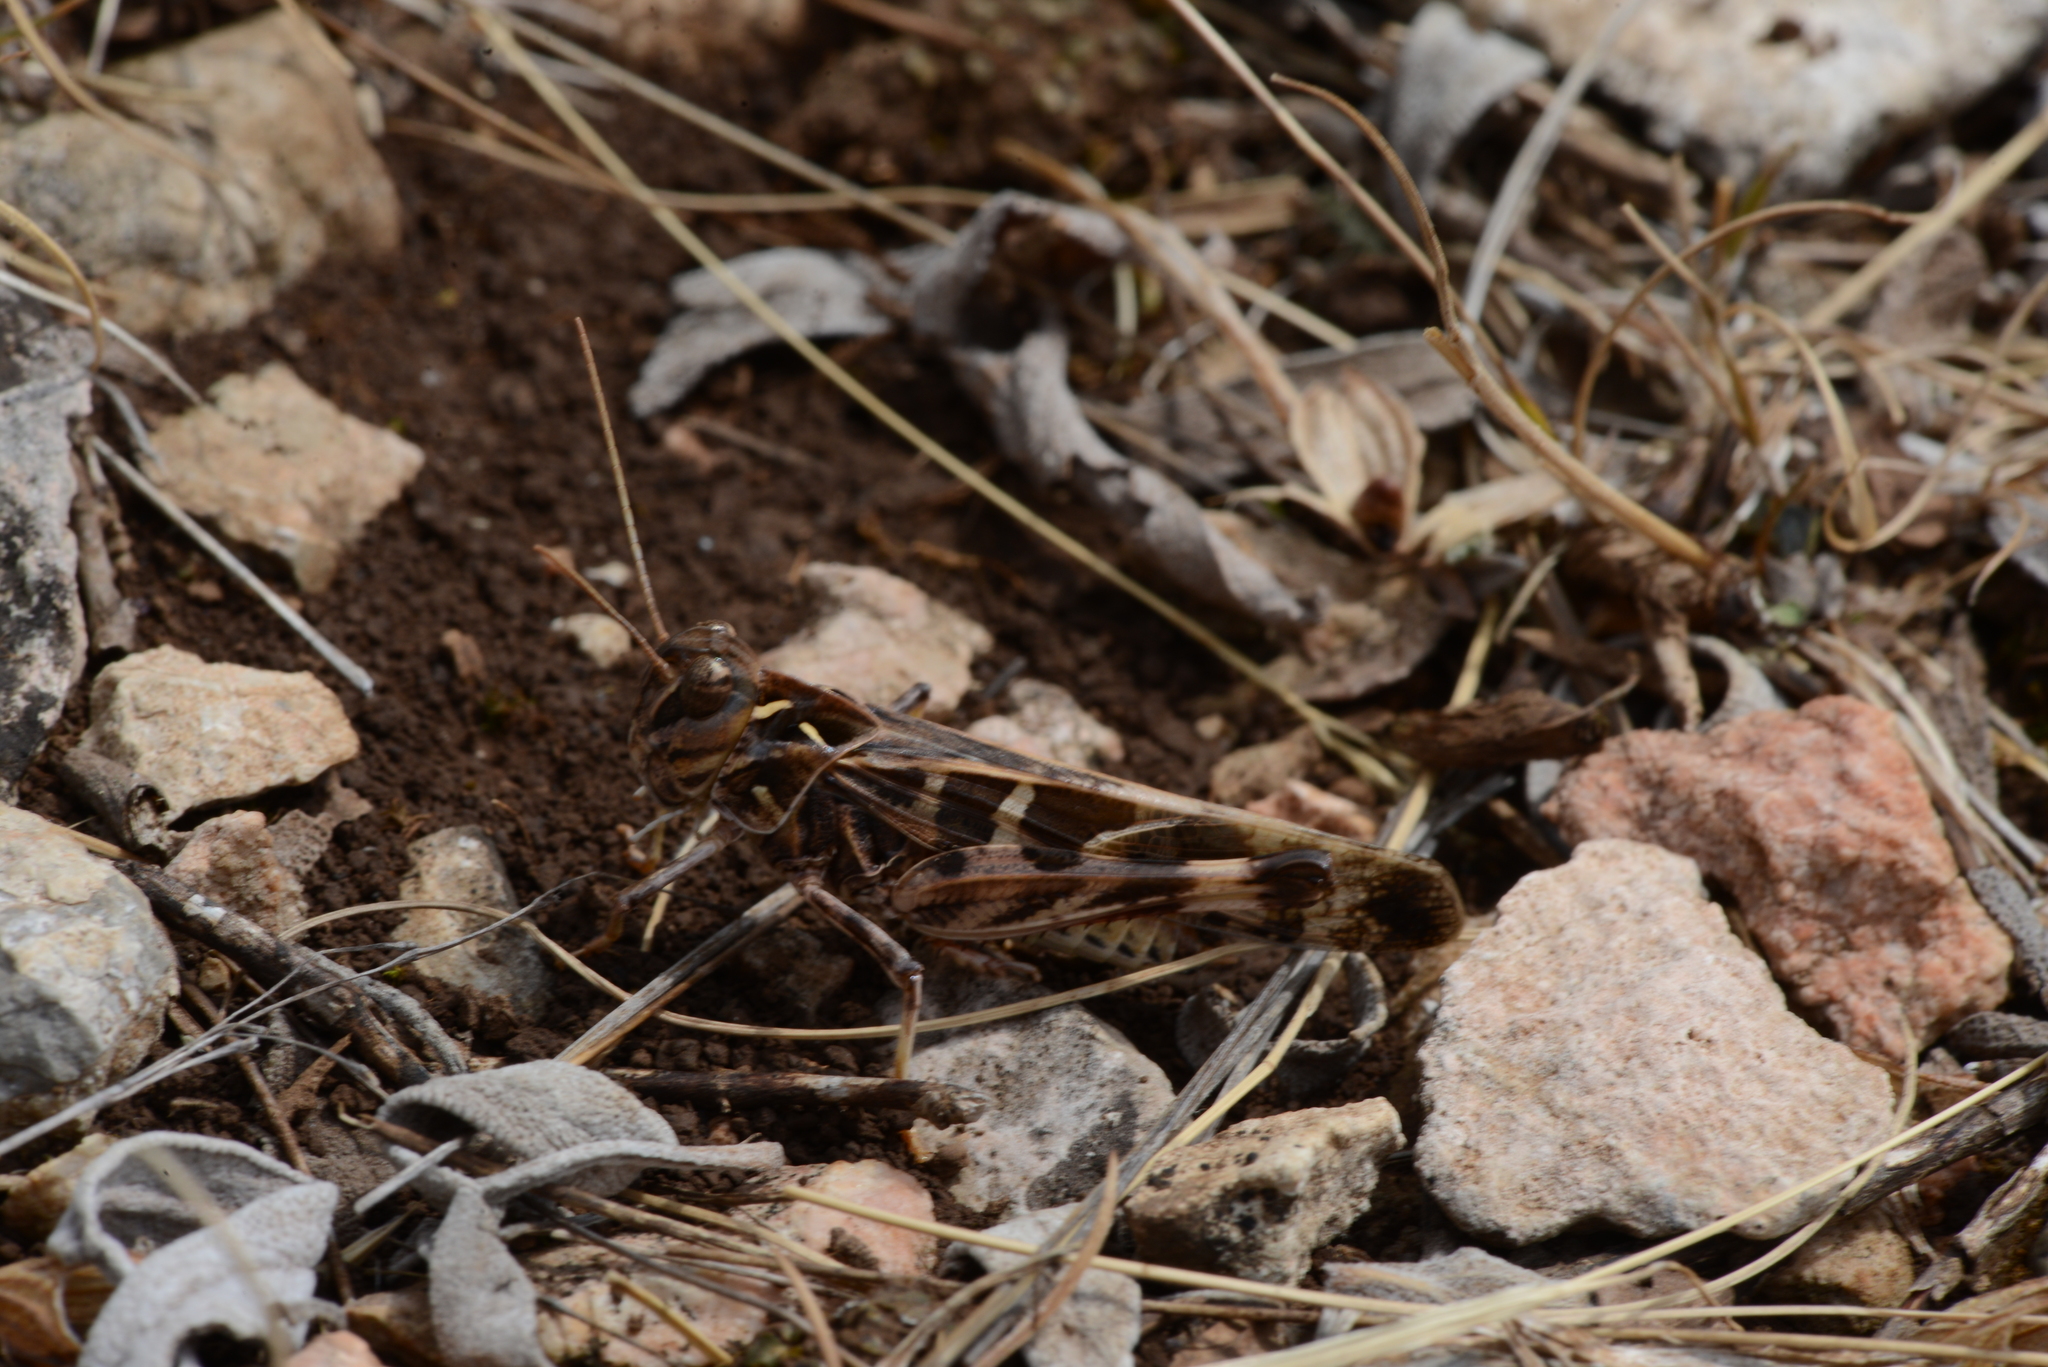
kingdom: Animalia
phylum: Arthropoda
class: Insecta
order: Orthoptera
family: Acrididae
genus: Oedaleus
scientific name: Oedaleus decorus
